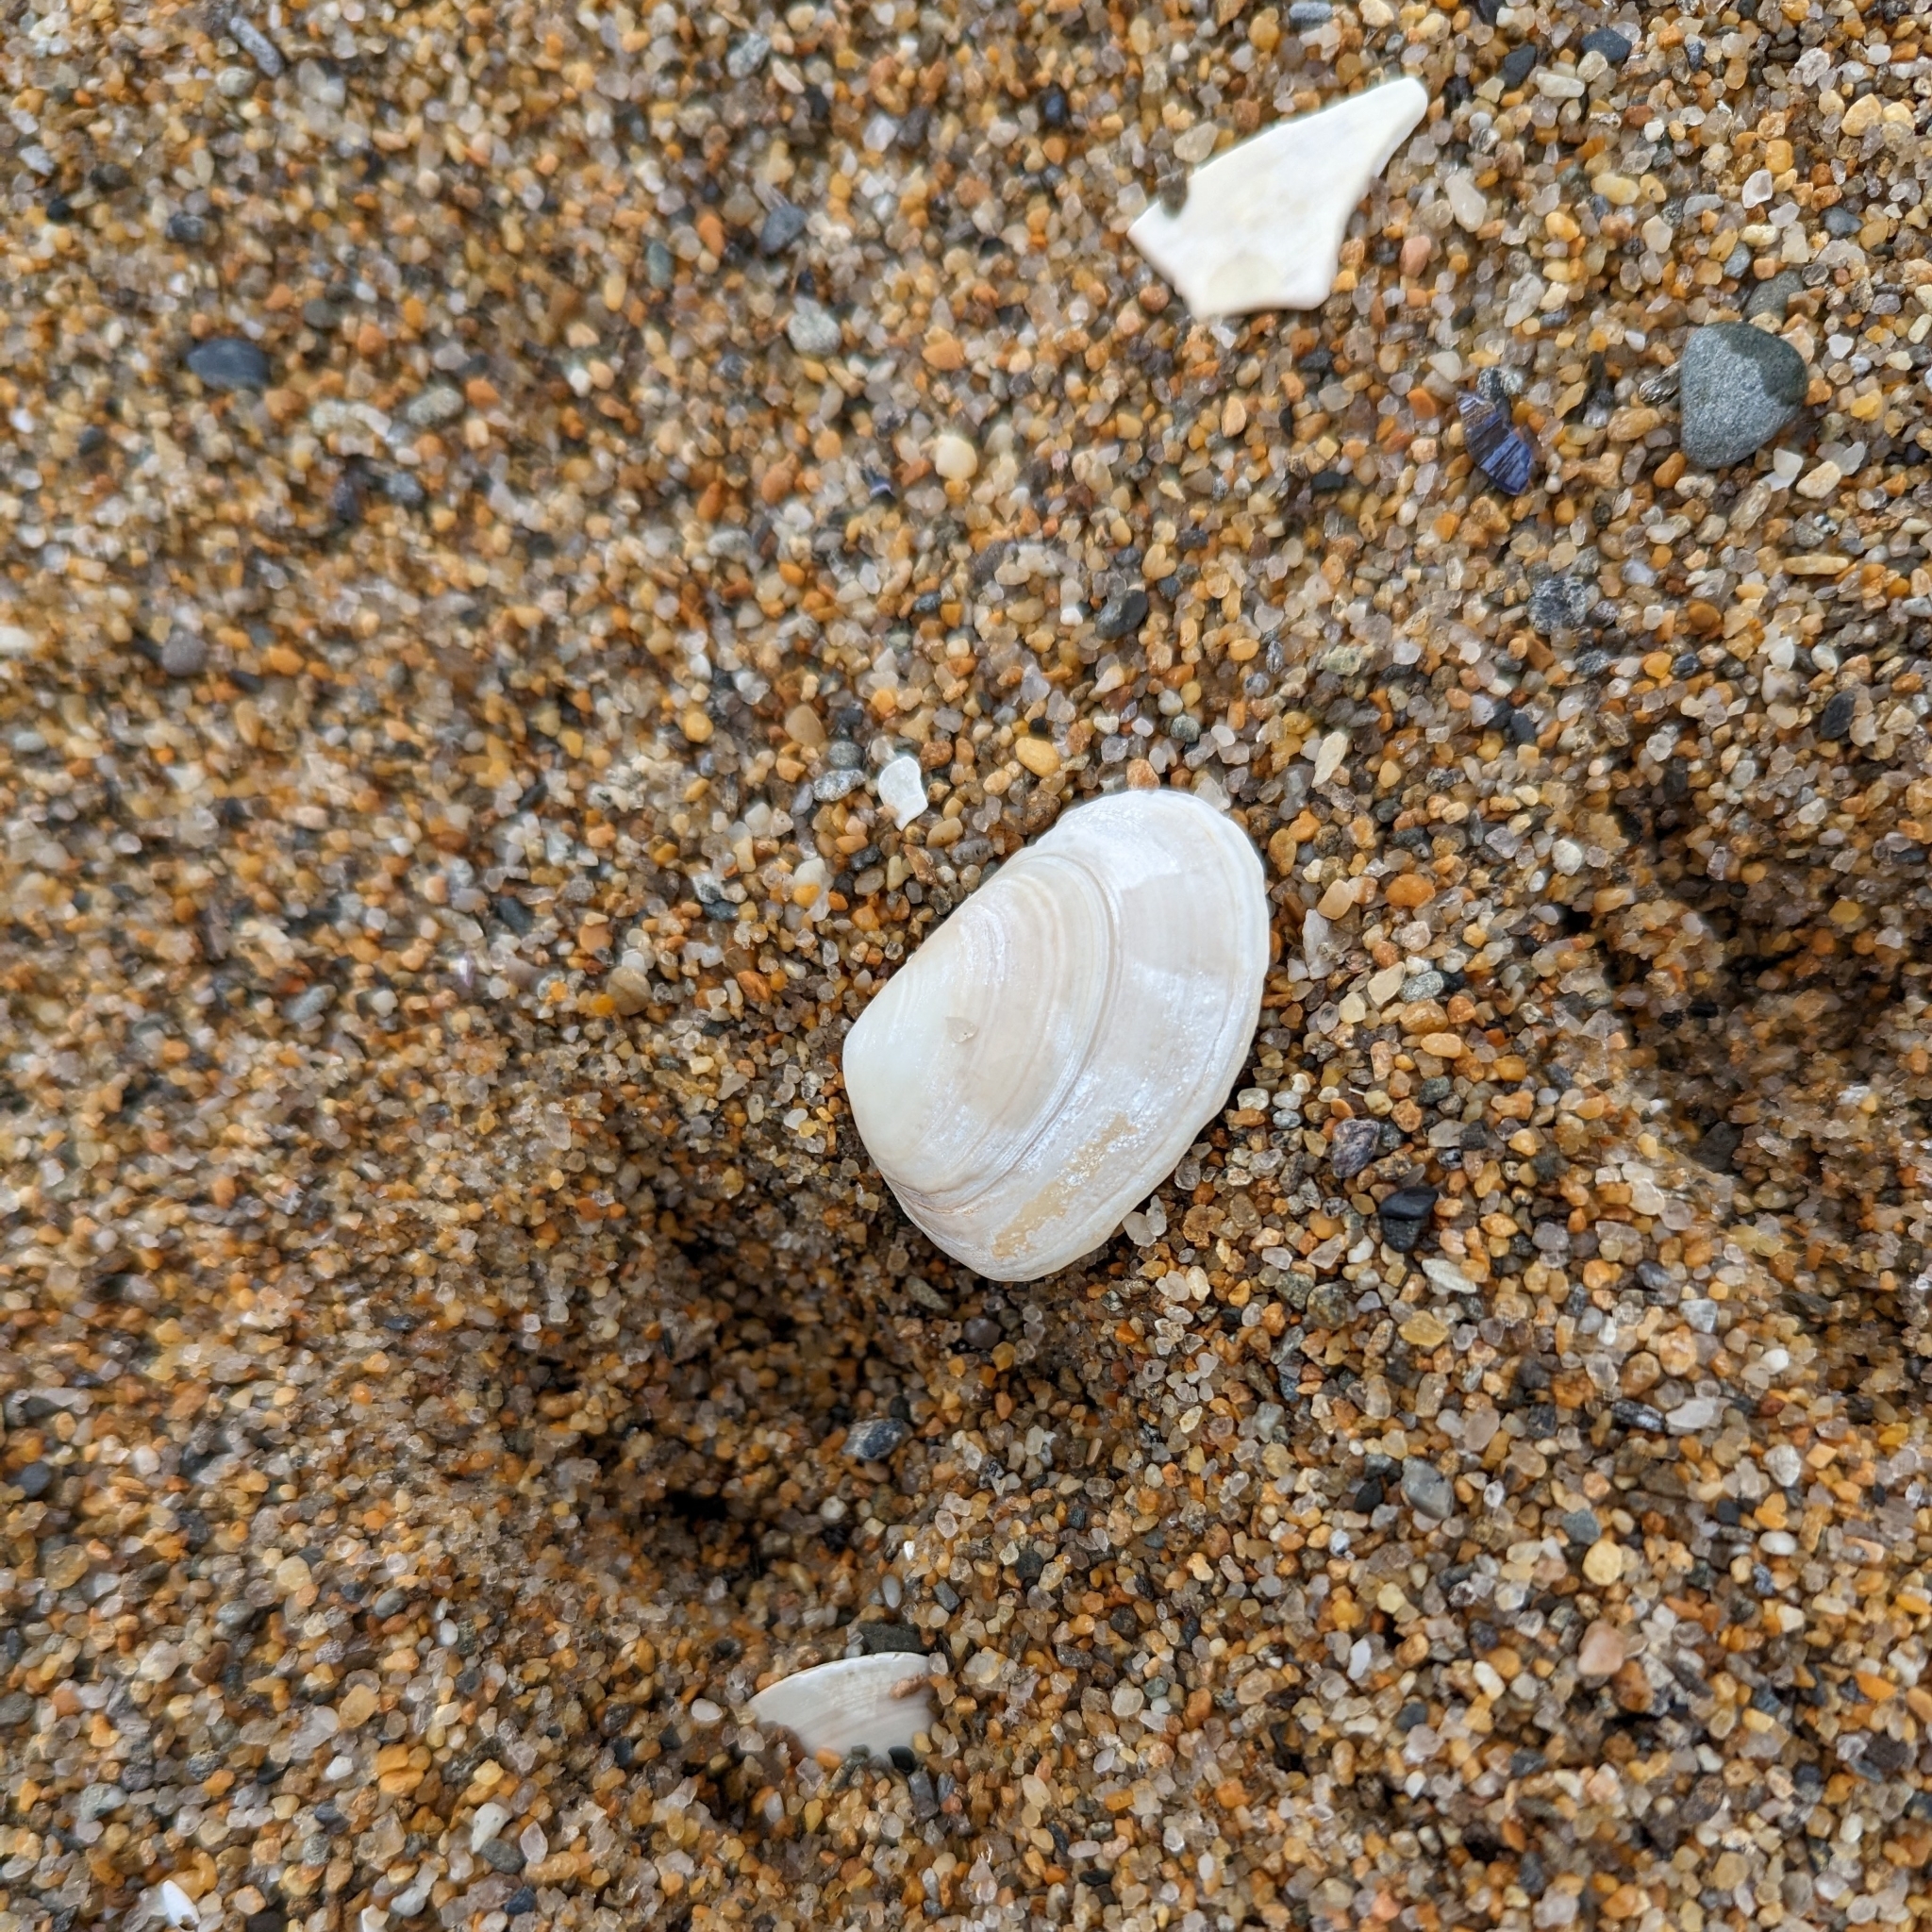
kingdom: Animalia
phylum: Mollusca
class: Bivalvia
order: Venerida
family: Mesodesmatidae
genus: Mesodesma
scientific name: Mesodesma arctatum
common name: Compressed clam
